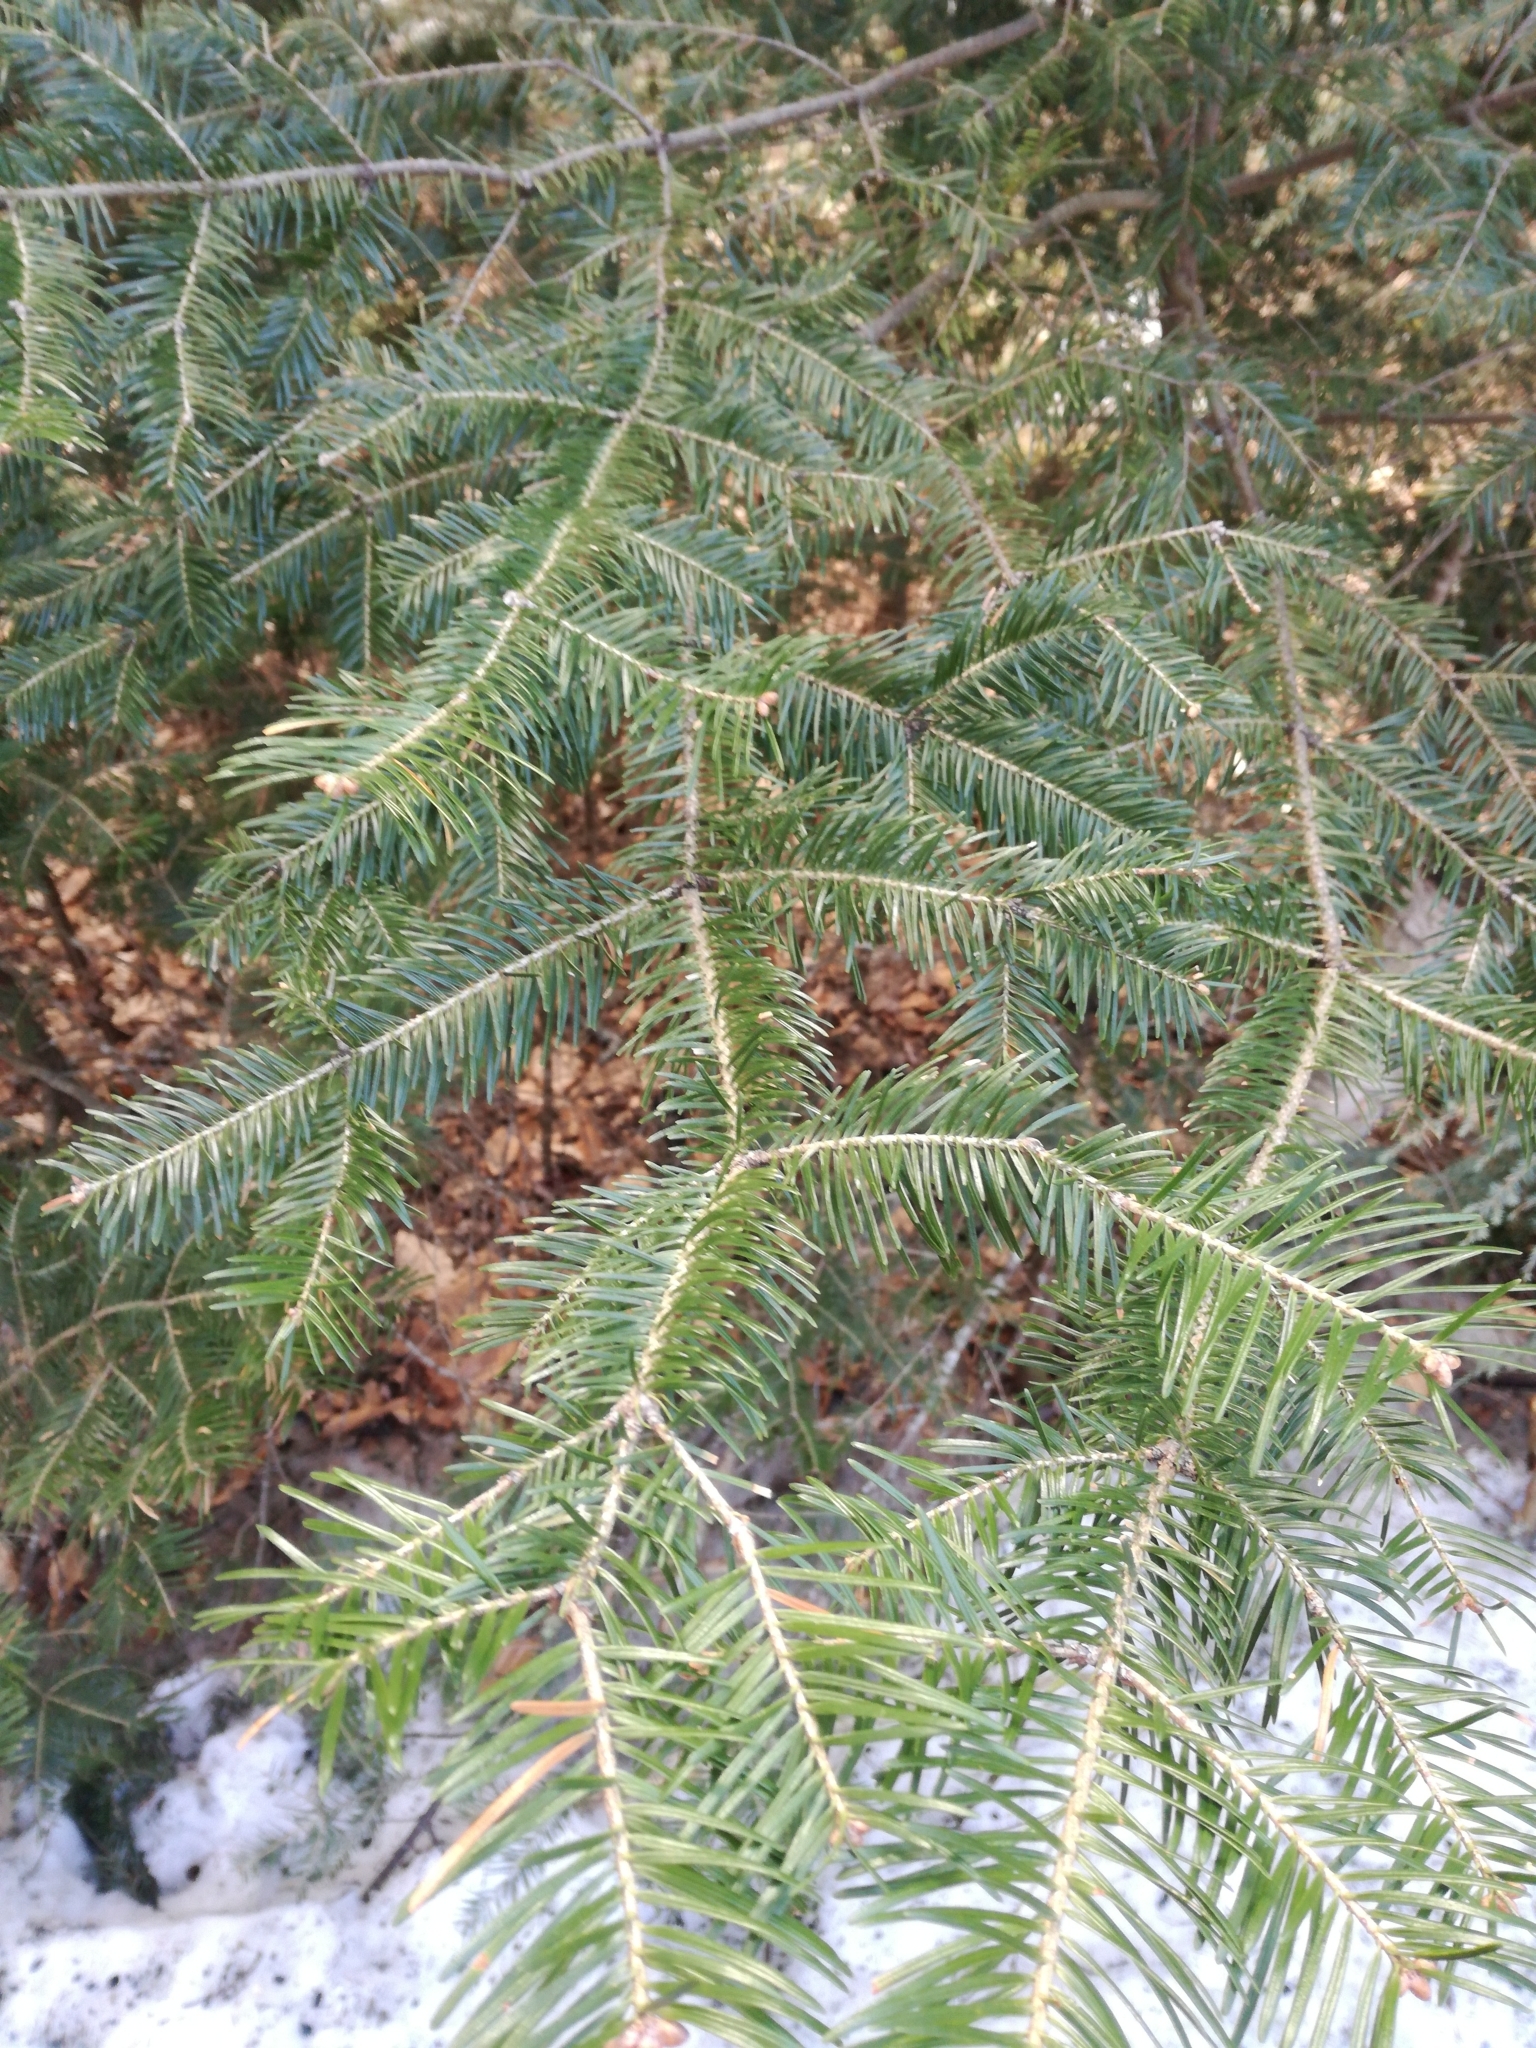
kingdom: Plantae
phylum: Tracheophyta
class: Pinopsida
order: Pinales
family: Pinaceae
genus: Abies
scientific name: Abies balsamea
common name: Balsam fir
